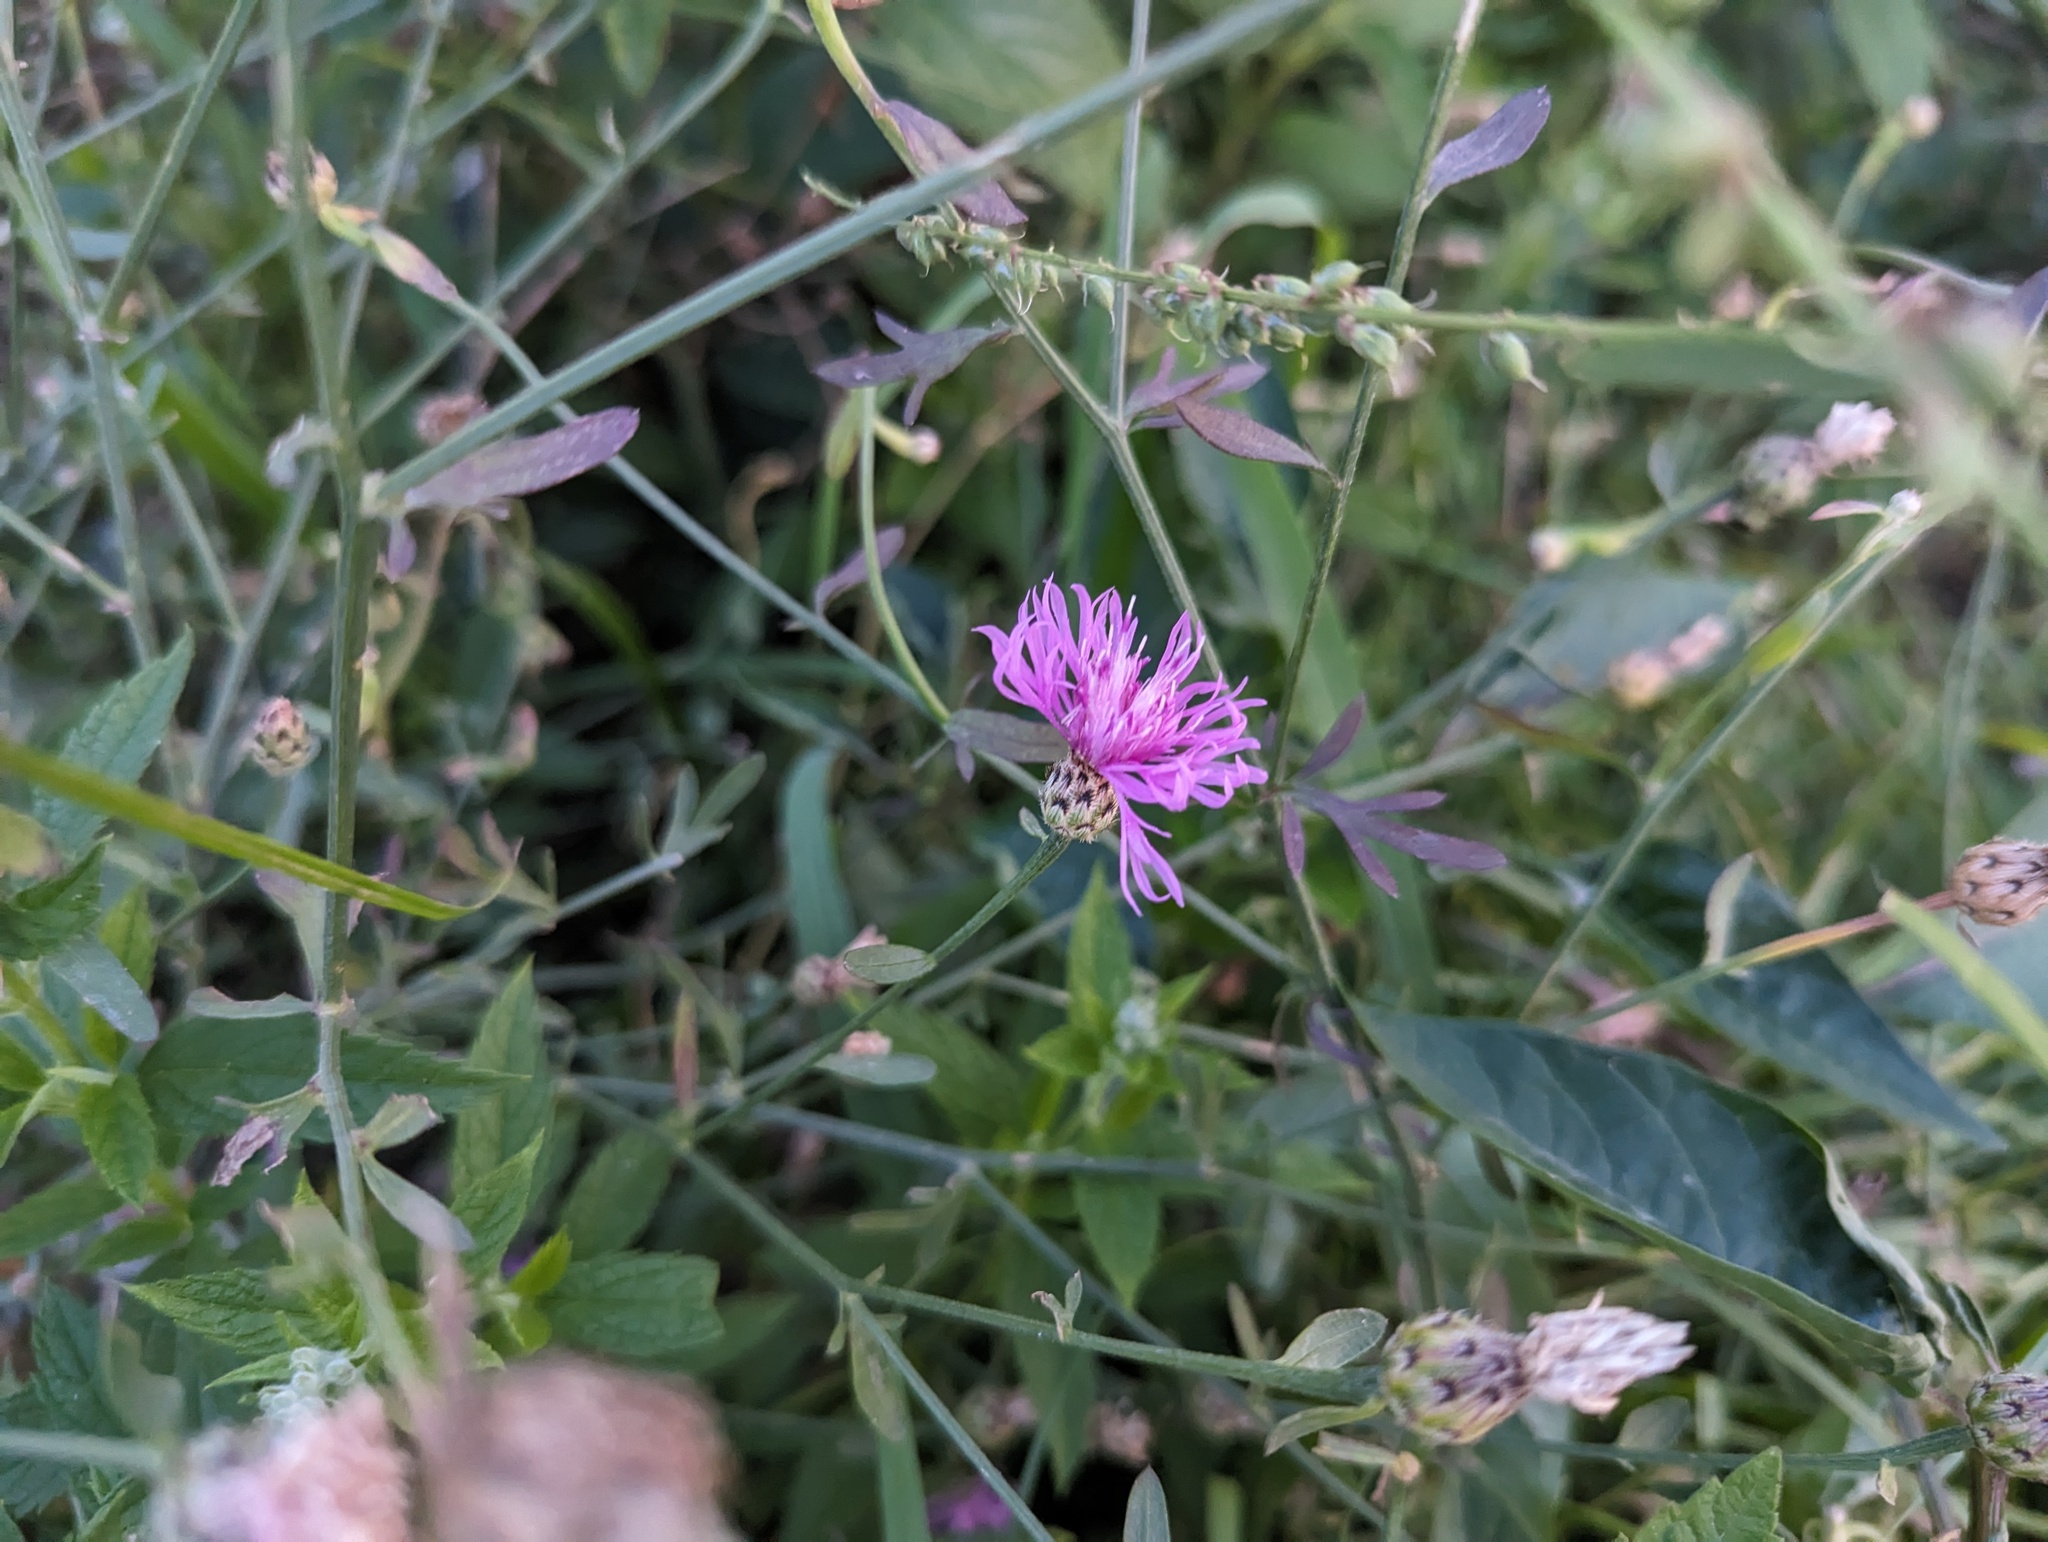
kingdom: Plantae
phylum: Tracheophyta
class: Magnoliopsida
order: Asterales
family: Asteraceae
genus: Centaurea
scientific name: Centaurea stoebe
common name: Spotted knapweed
